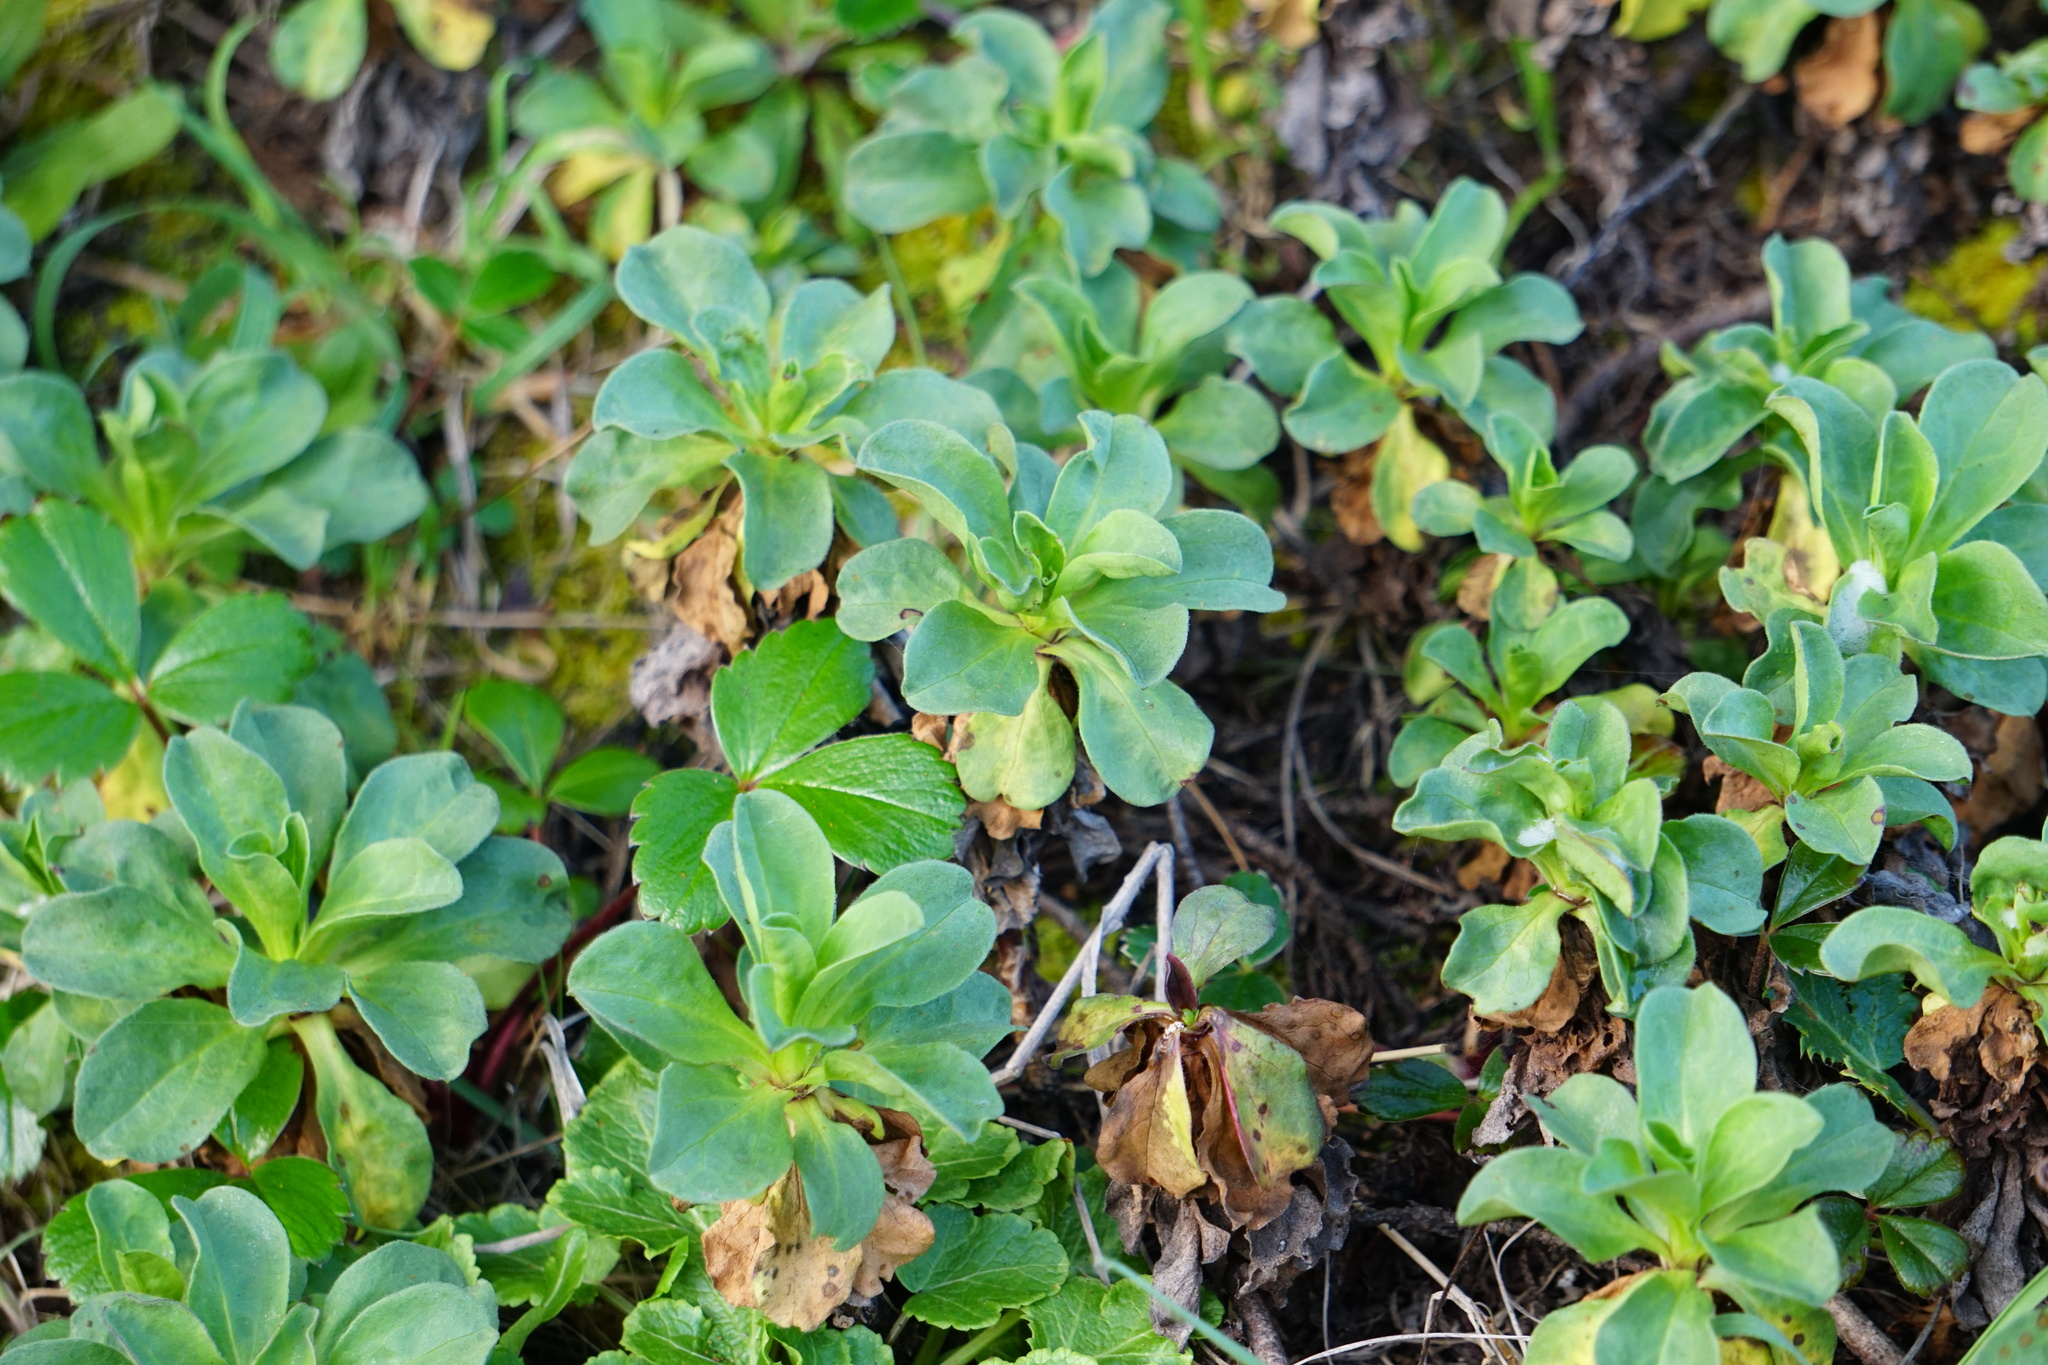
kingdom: Plantae
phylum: Tracheophyta
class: Magnoliopsida
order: Asterales
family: Asteraceae
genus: Erigeron
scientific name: Erigeron glaucus
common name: Seaside daisy
